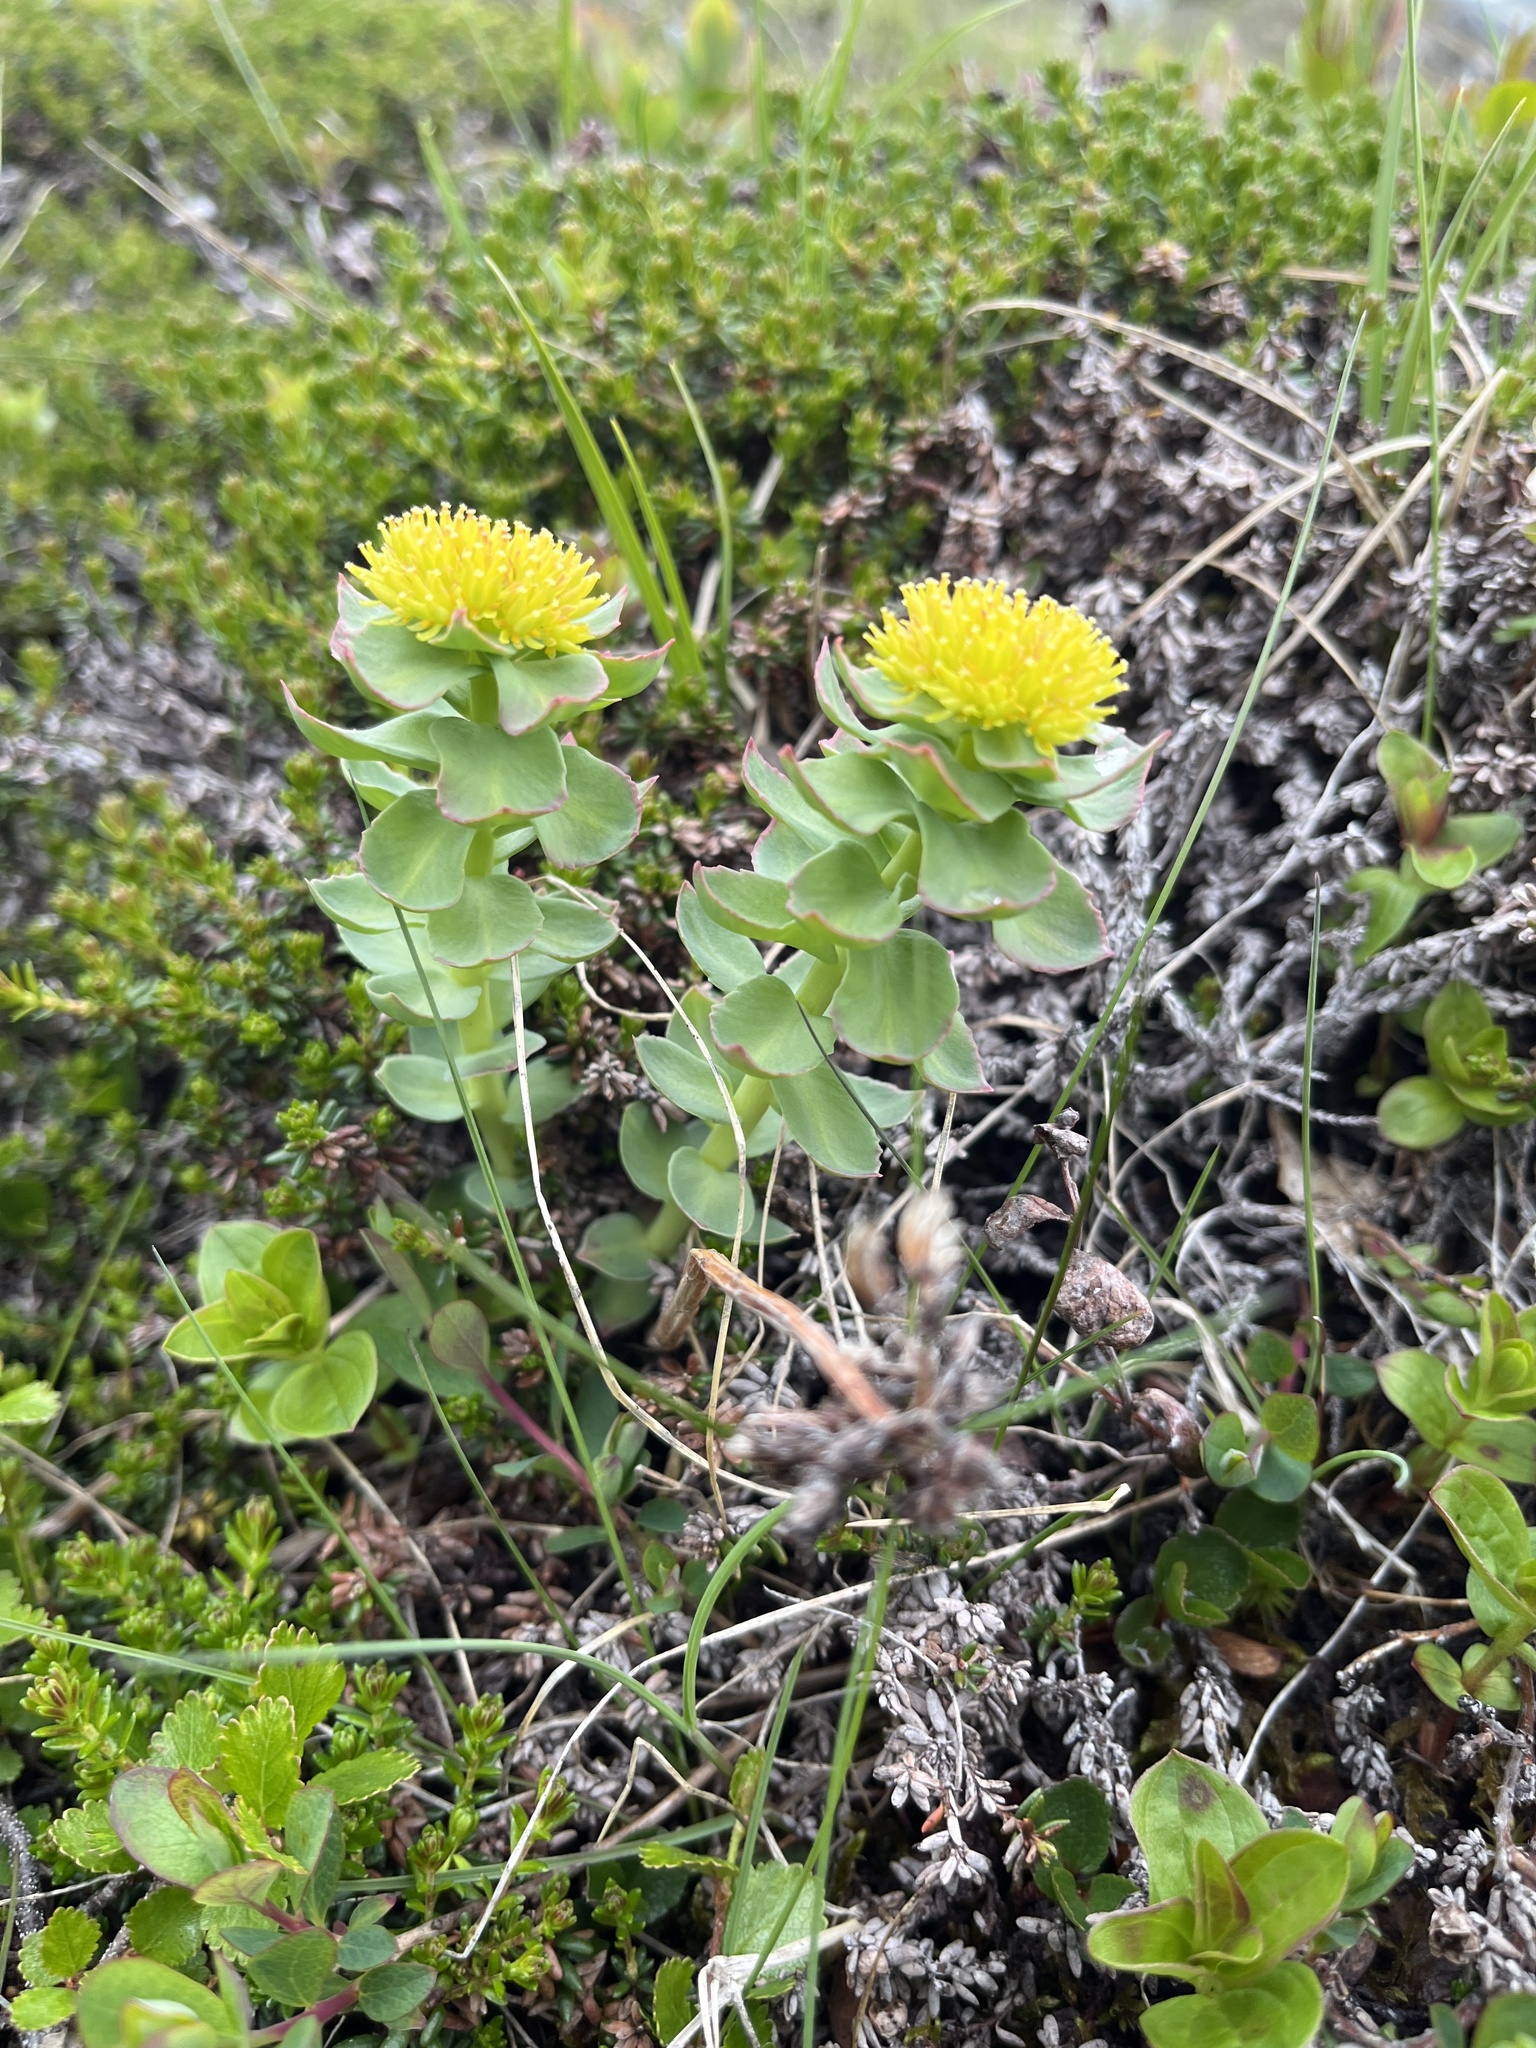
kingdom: Plantae
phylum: Tracheophyta
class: Magnoliopsida
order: Saxifragales
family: Crassulaceae
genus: Rhodiola
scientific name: Rhodiola rosea
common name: Roseroot
